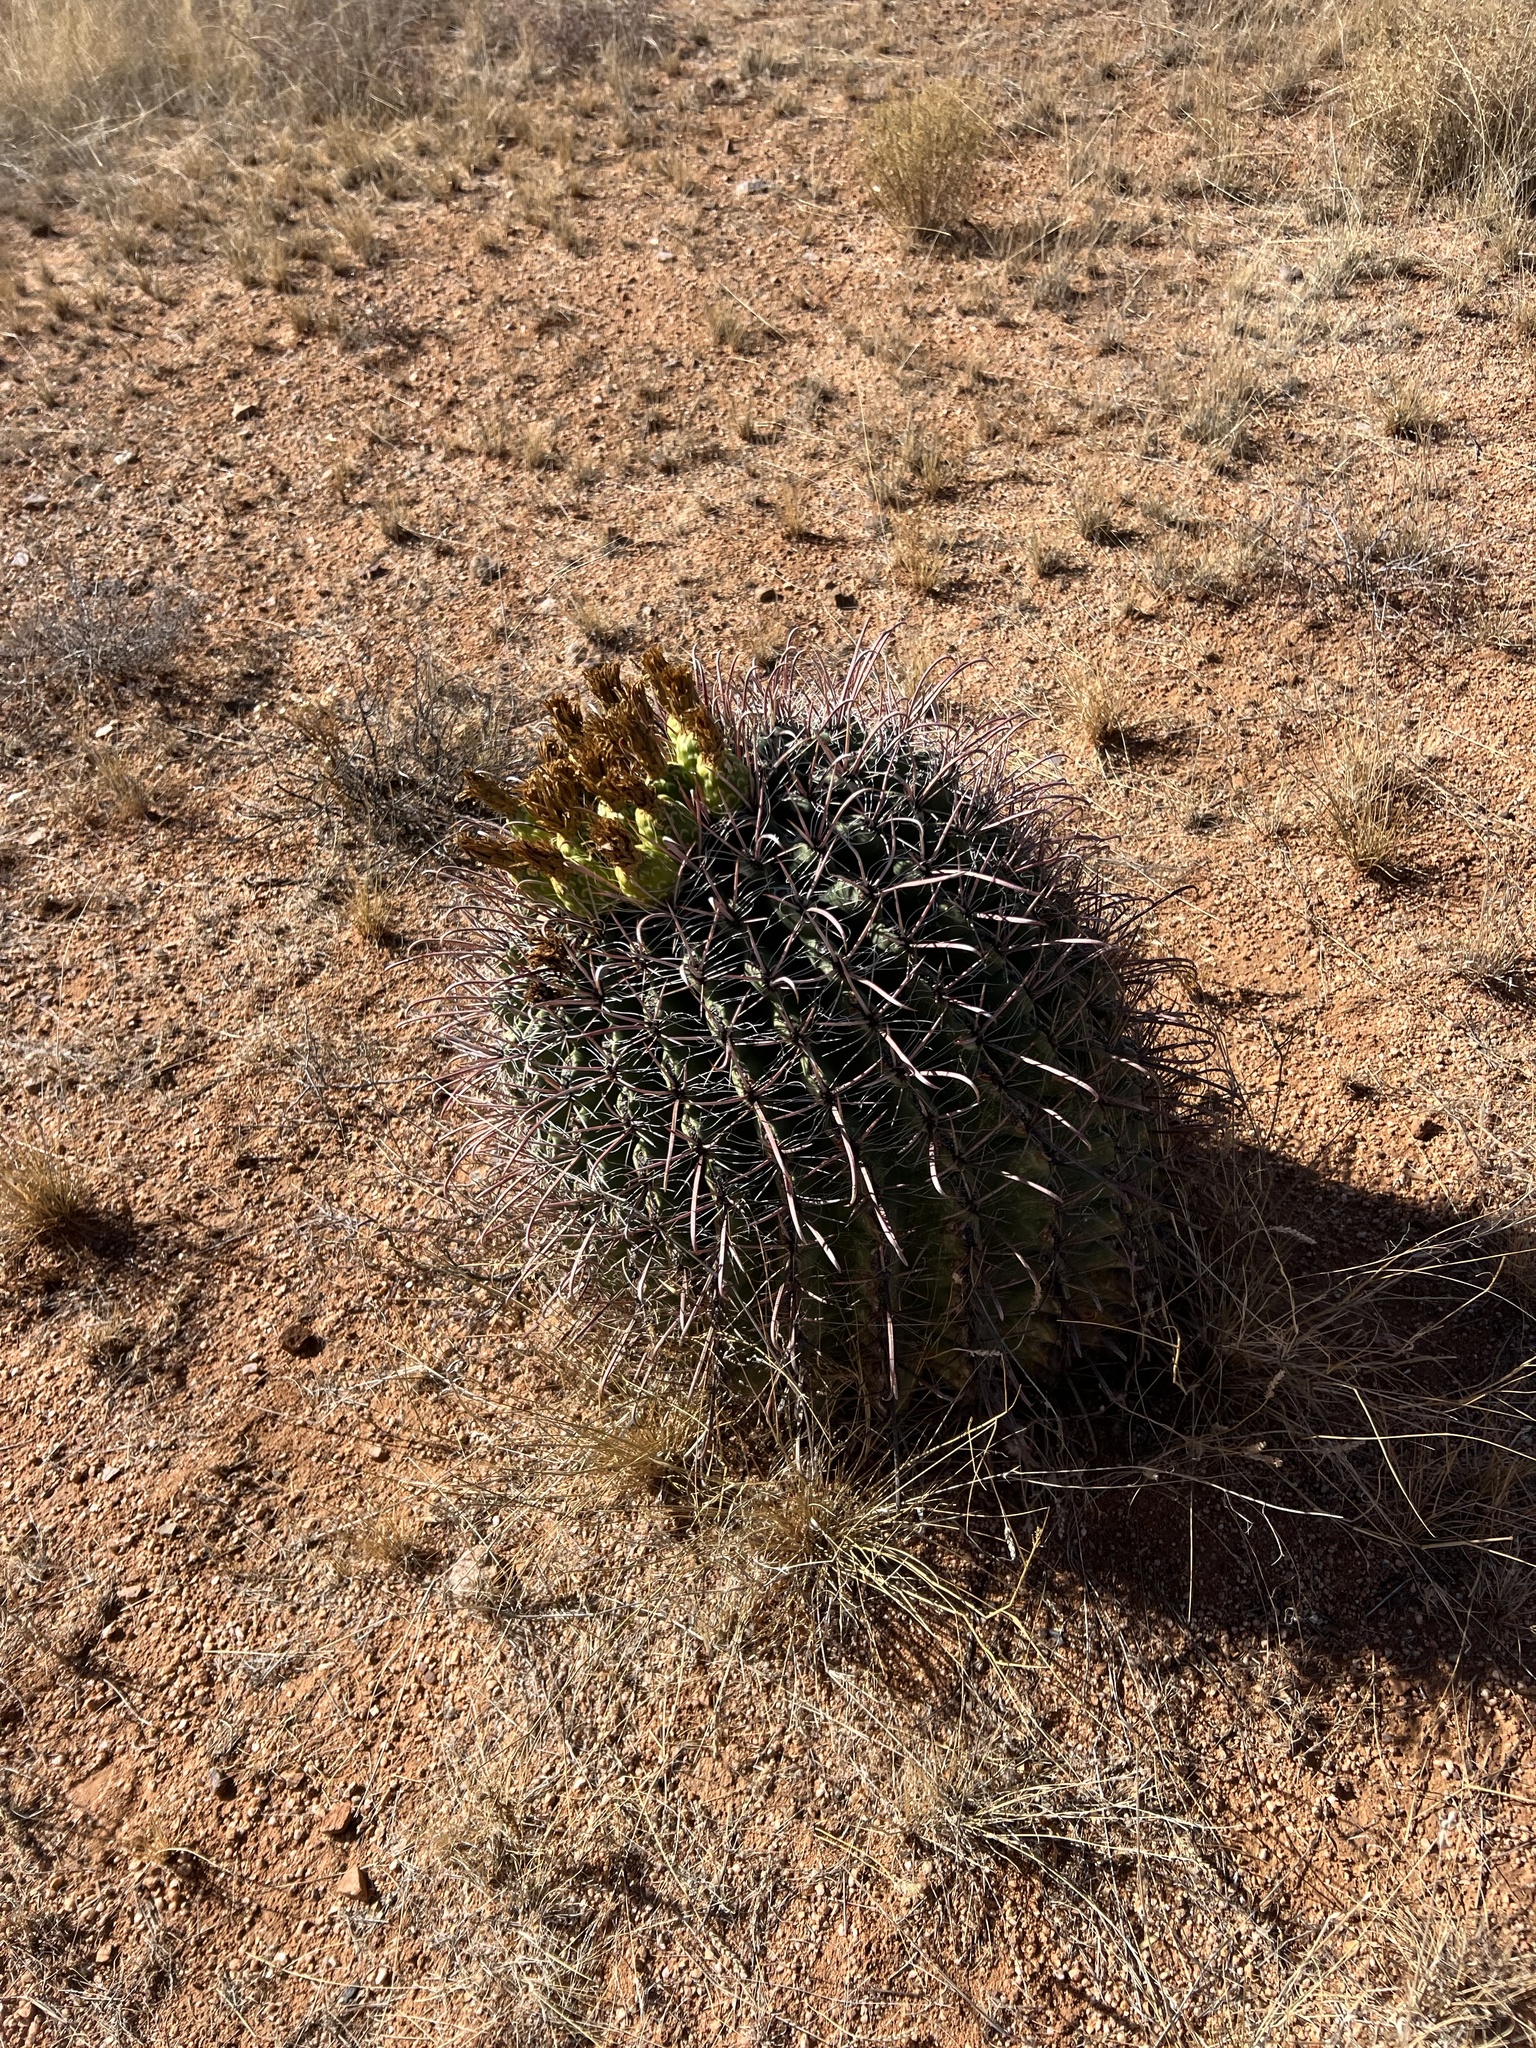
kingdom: Plantae
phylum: Tracheophyta
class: Magnoliopsida
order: Caryophyllales
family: Cactaceae
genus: Ferocactus
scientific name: Ferocactus wislizeni
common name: Candy barrel cactus
